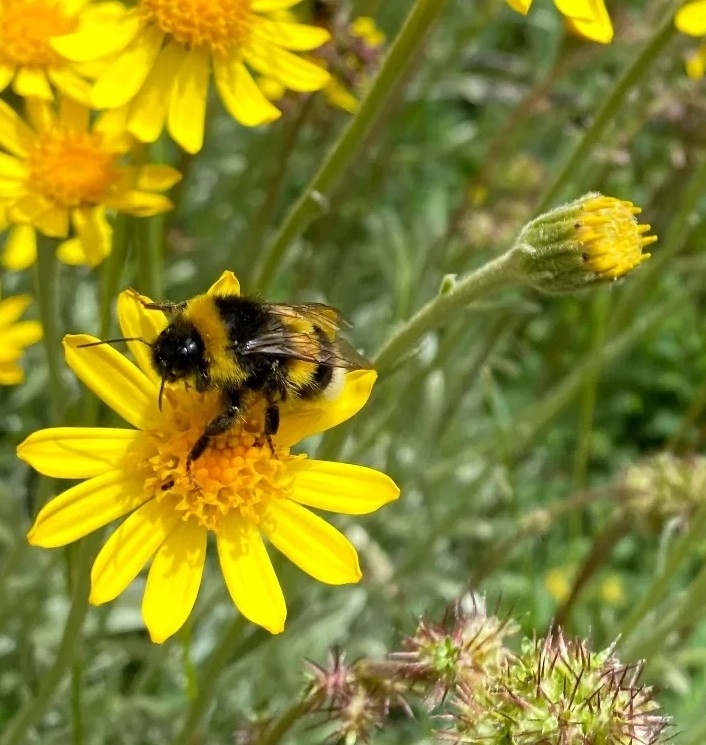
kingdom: Animalia
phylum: Arthropoda
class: Insecta
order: Hymenoptera
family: Apidae
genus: Bombus
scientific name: Bombus terrestris
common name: Buff-tailed bumblebee
